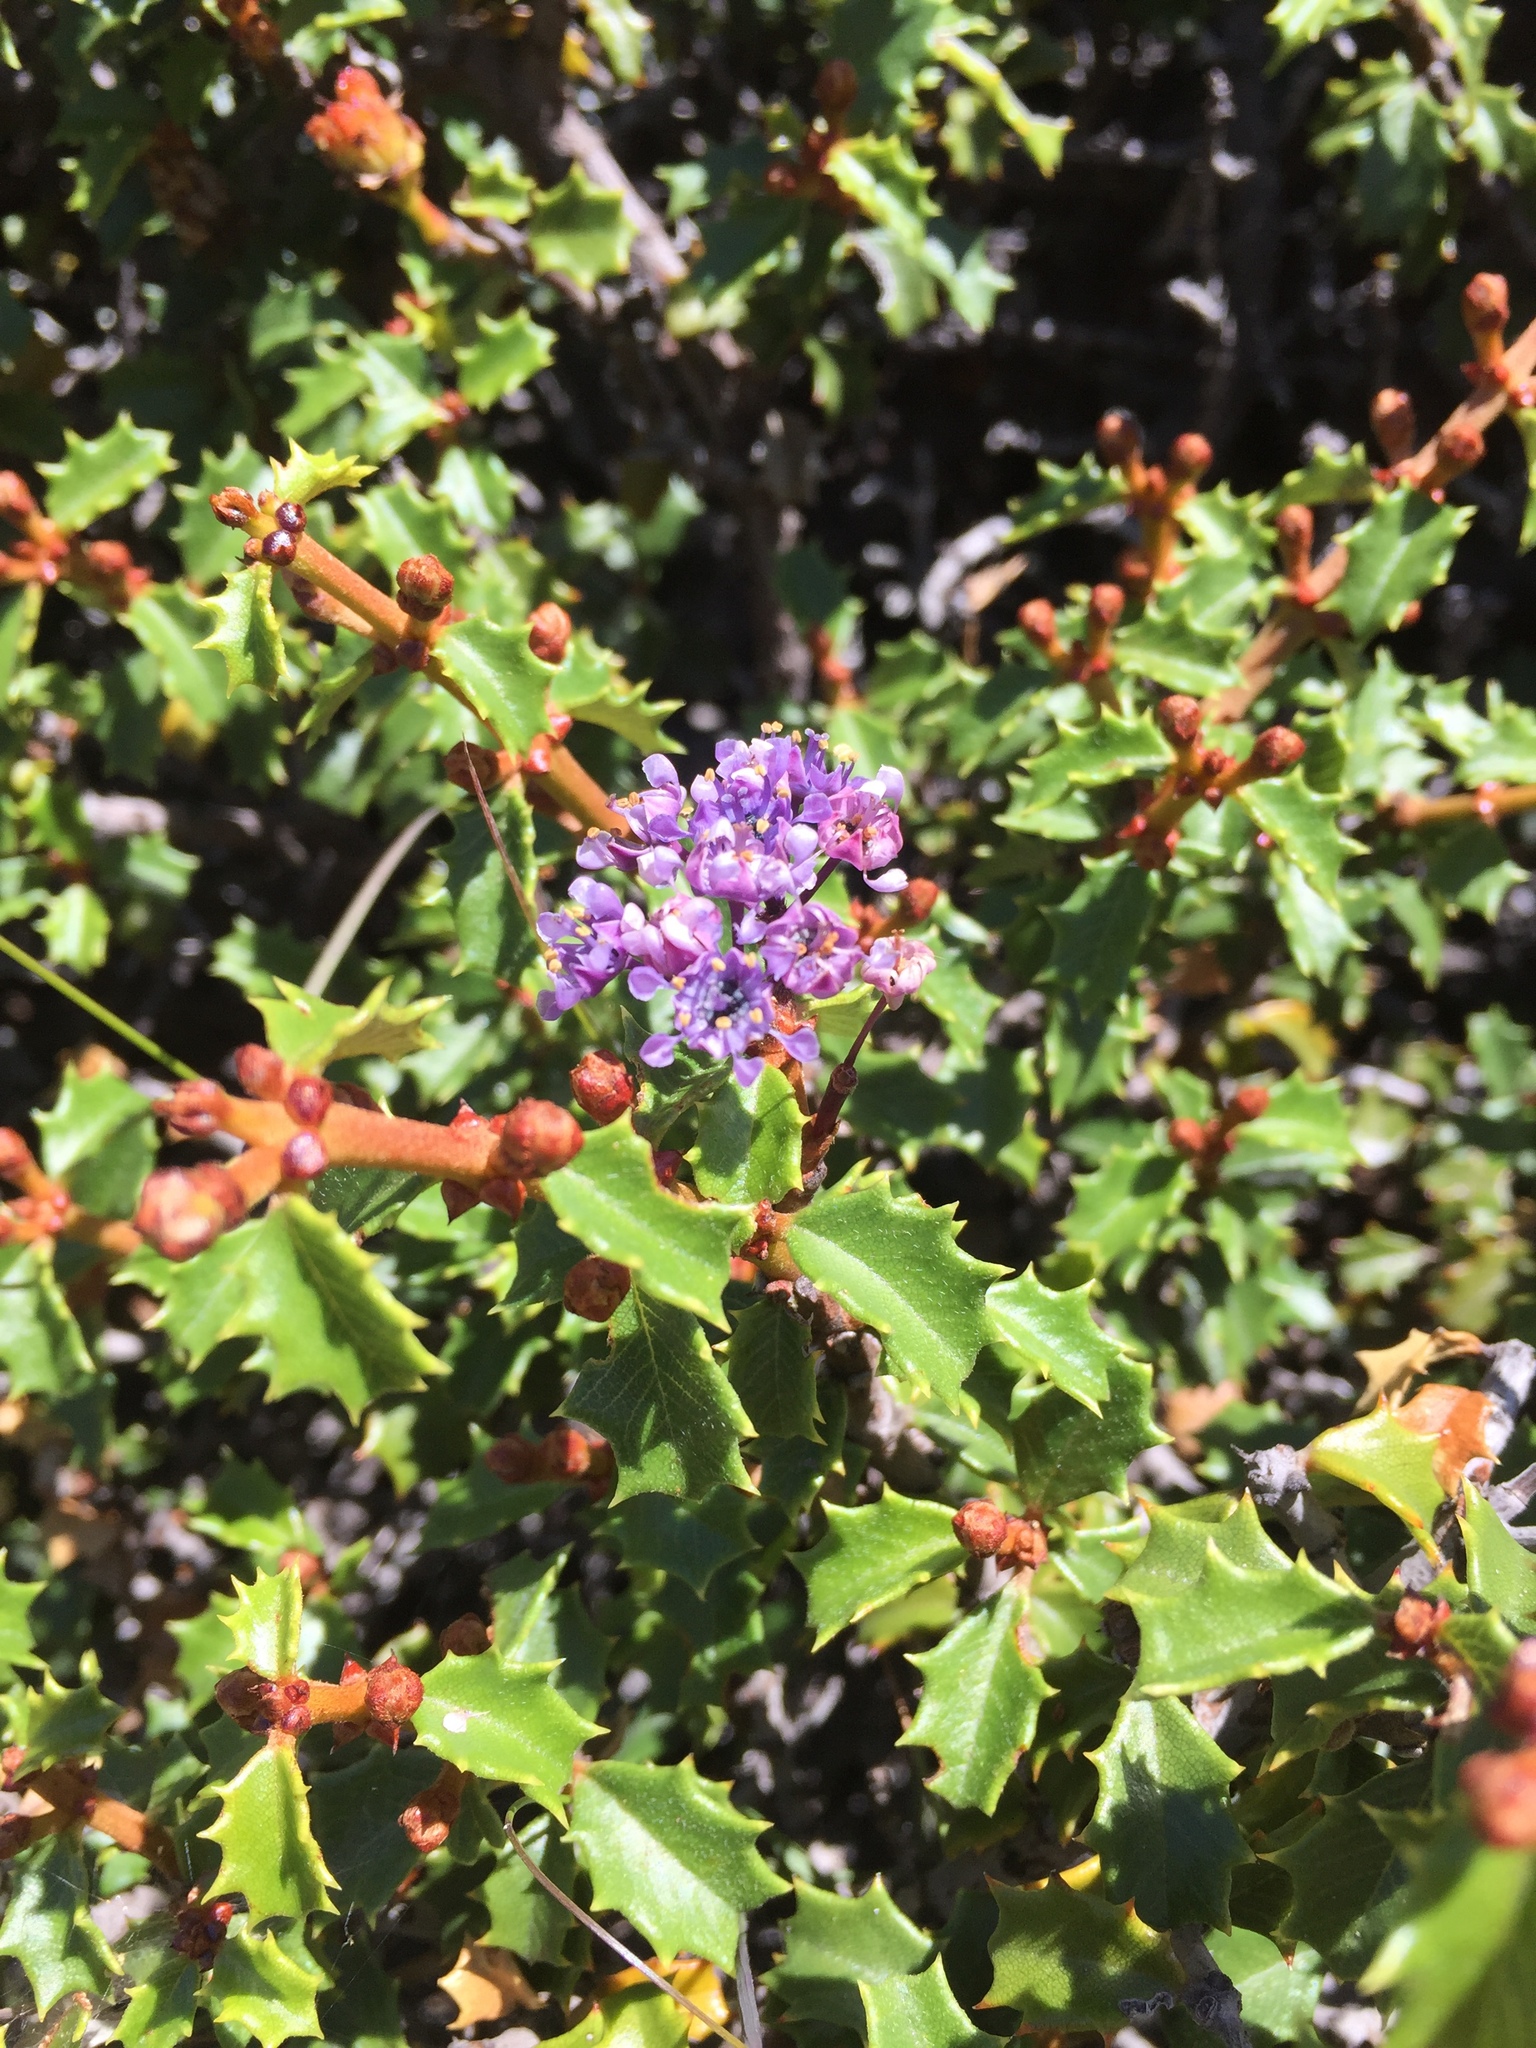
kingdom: Plantae
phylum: Tracheophyta
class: Magnoliopsida
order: Rosales
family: Rhamnaceae
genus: Ceanothus
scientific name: Ceanothus jepsonii
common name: Muskbrush
